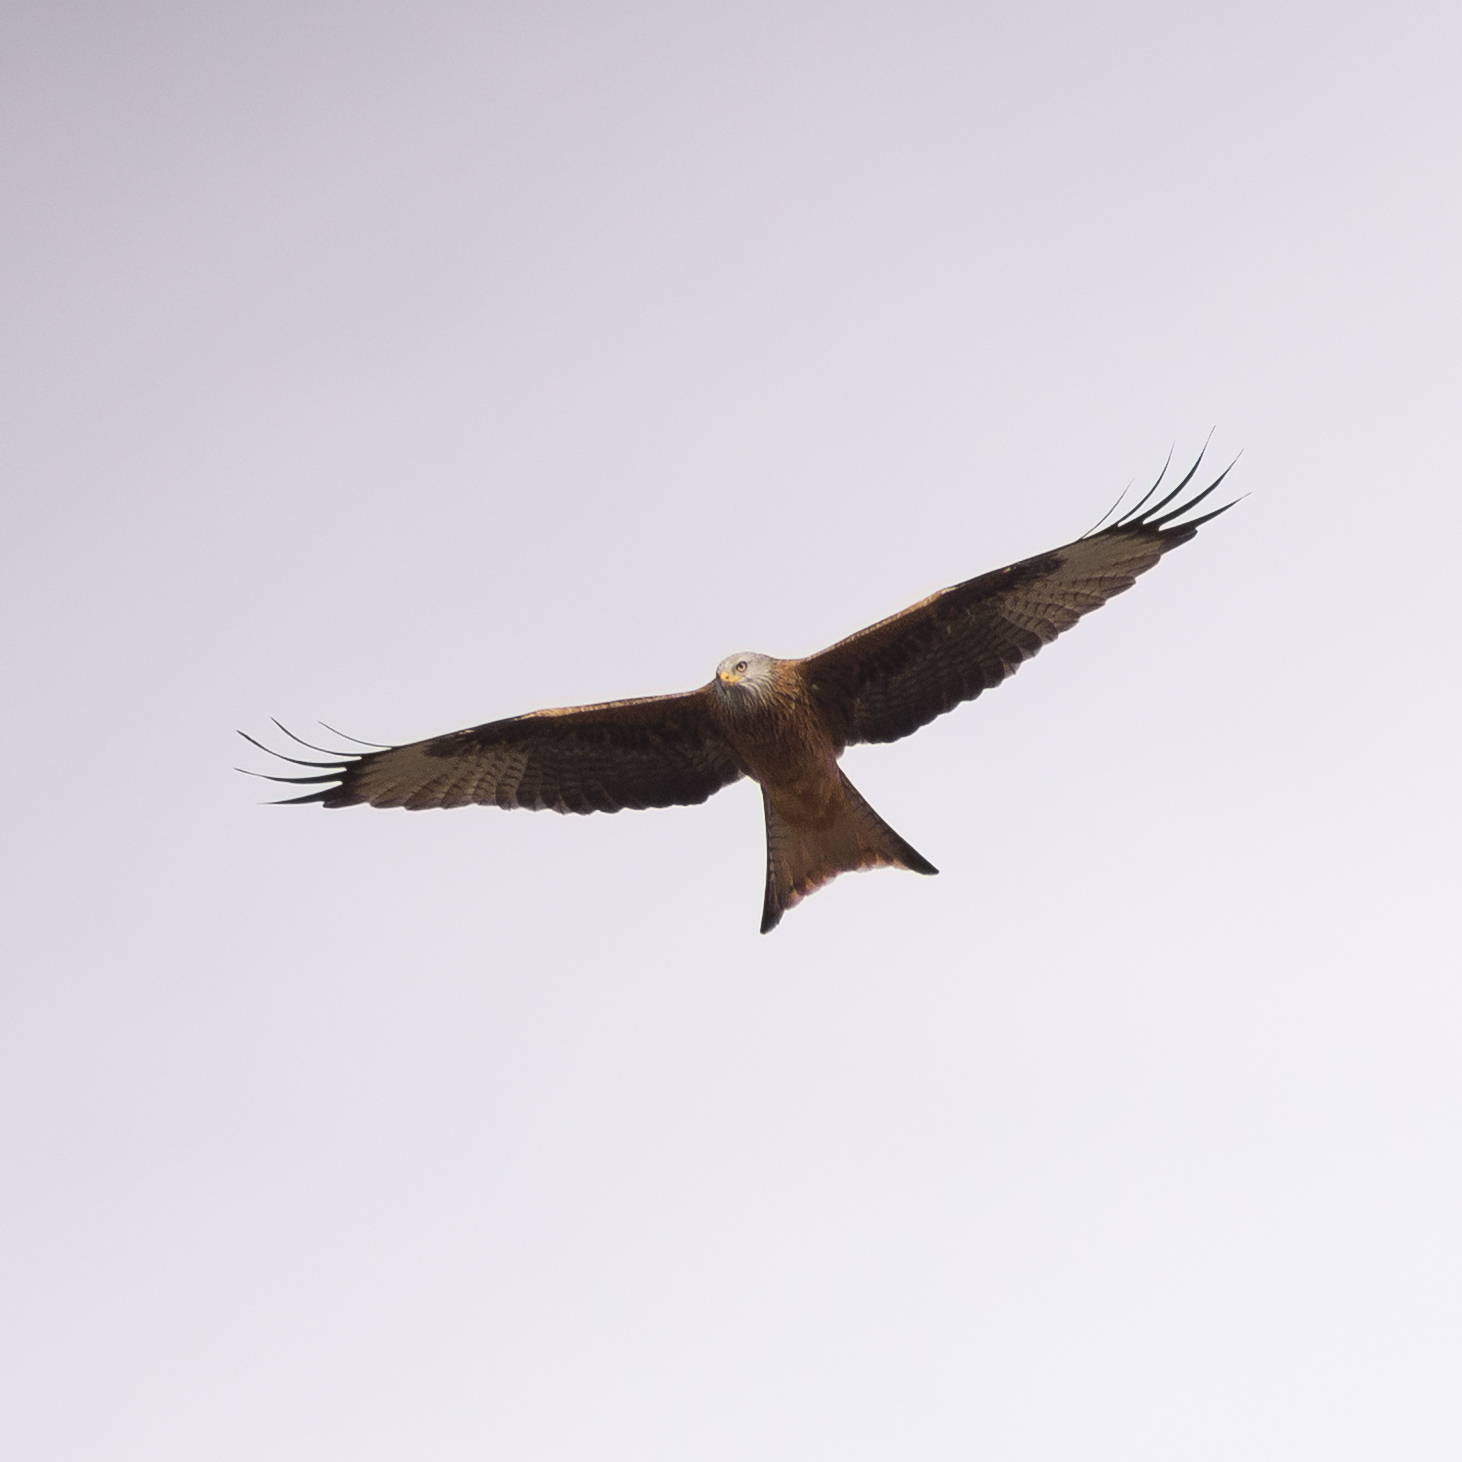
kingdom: Animalia
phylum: Chordata
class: Aves
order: Accipitriformes
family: Accipitridae
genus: Milvus
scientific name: Milvus milvus
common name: Red kite
